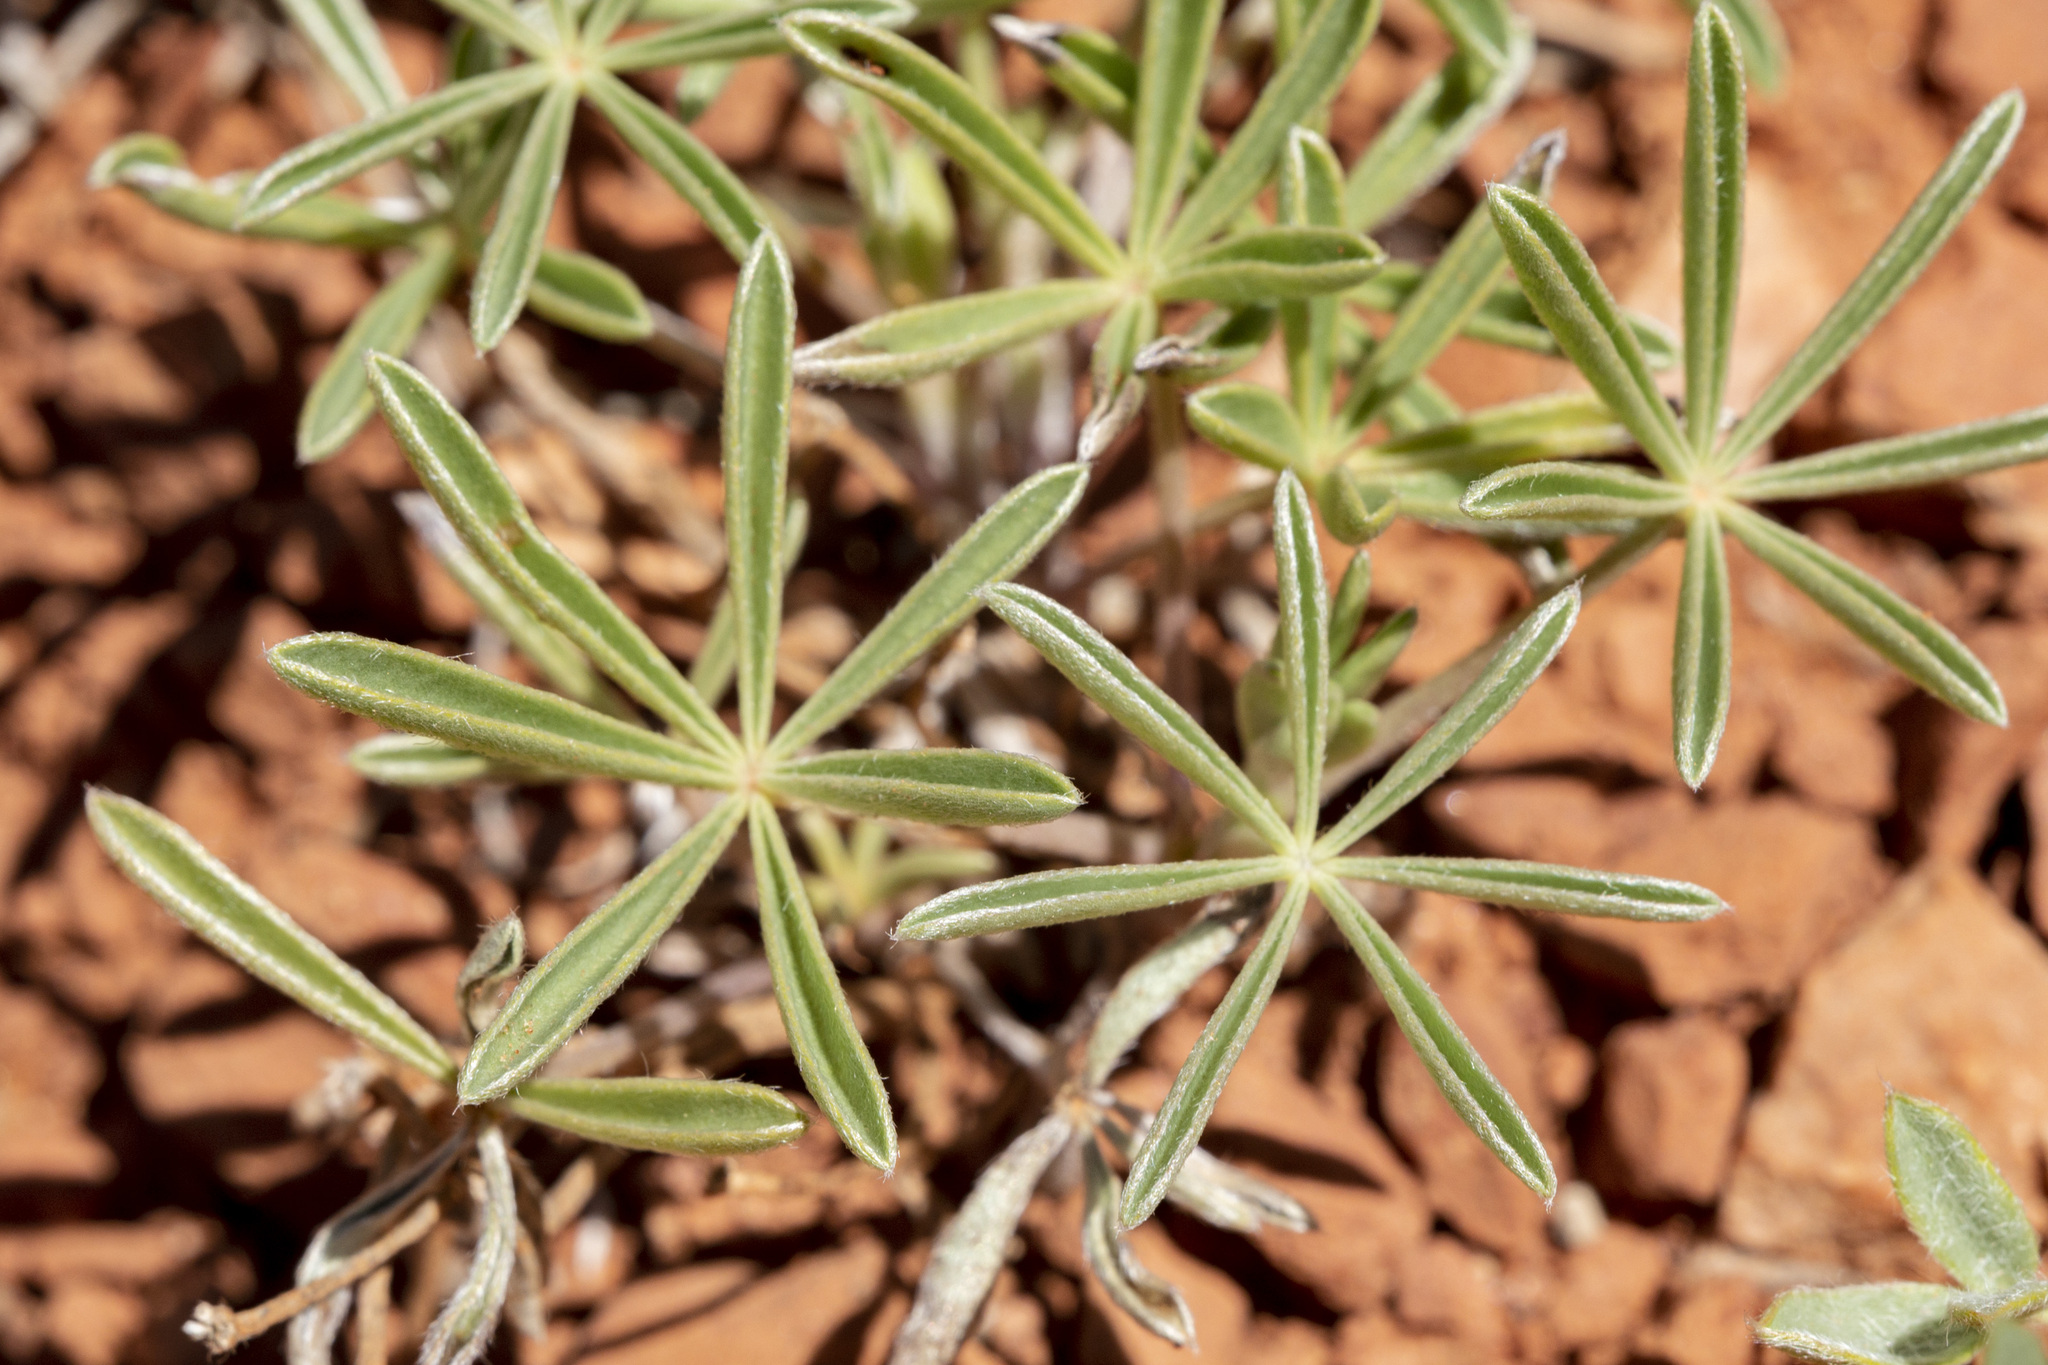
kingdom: Plantae
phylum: Tracheophyta
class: Magnoliopsida
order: Fabales
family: Fabaceae
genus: Lupinus
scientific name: Lupinus argenteus
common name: Silvery lupine
